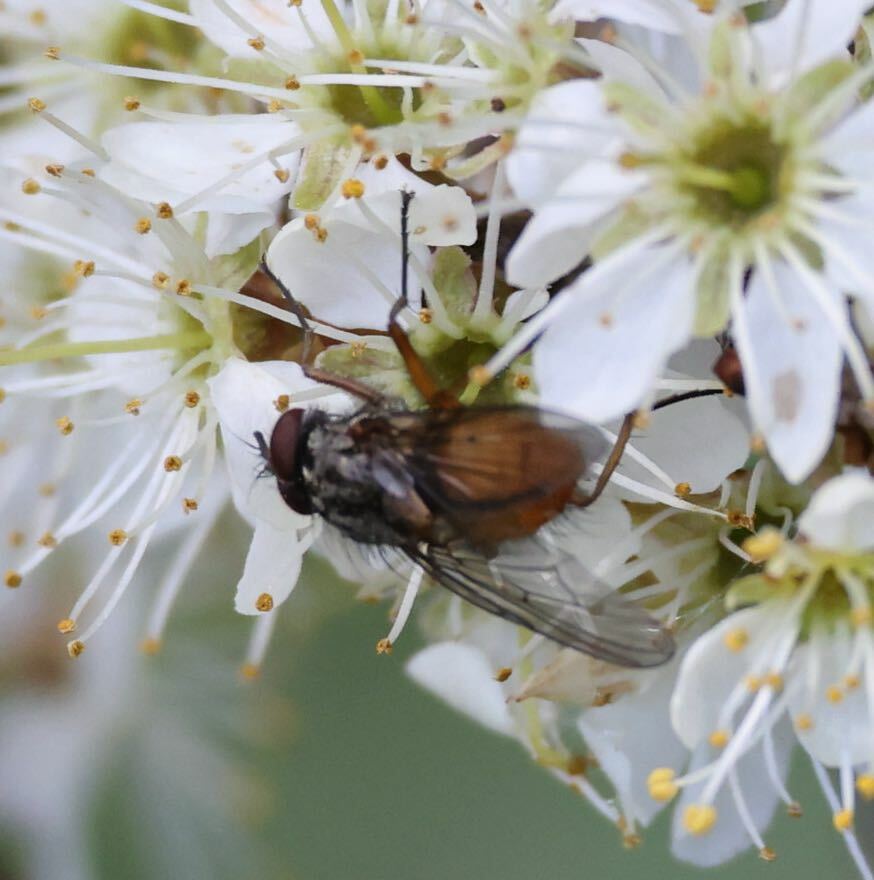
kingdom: Animalia
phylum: Arthropoda
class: Insecta
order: Diptera
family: Muscidae
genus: Phaonia
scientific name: Phaonia subventa
